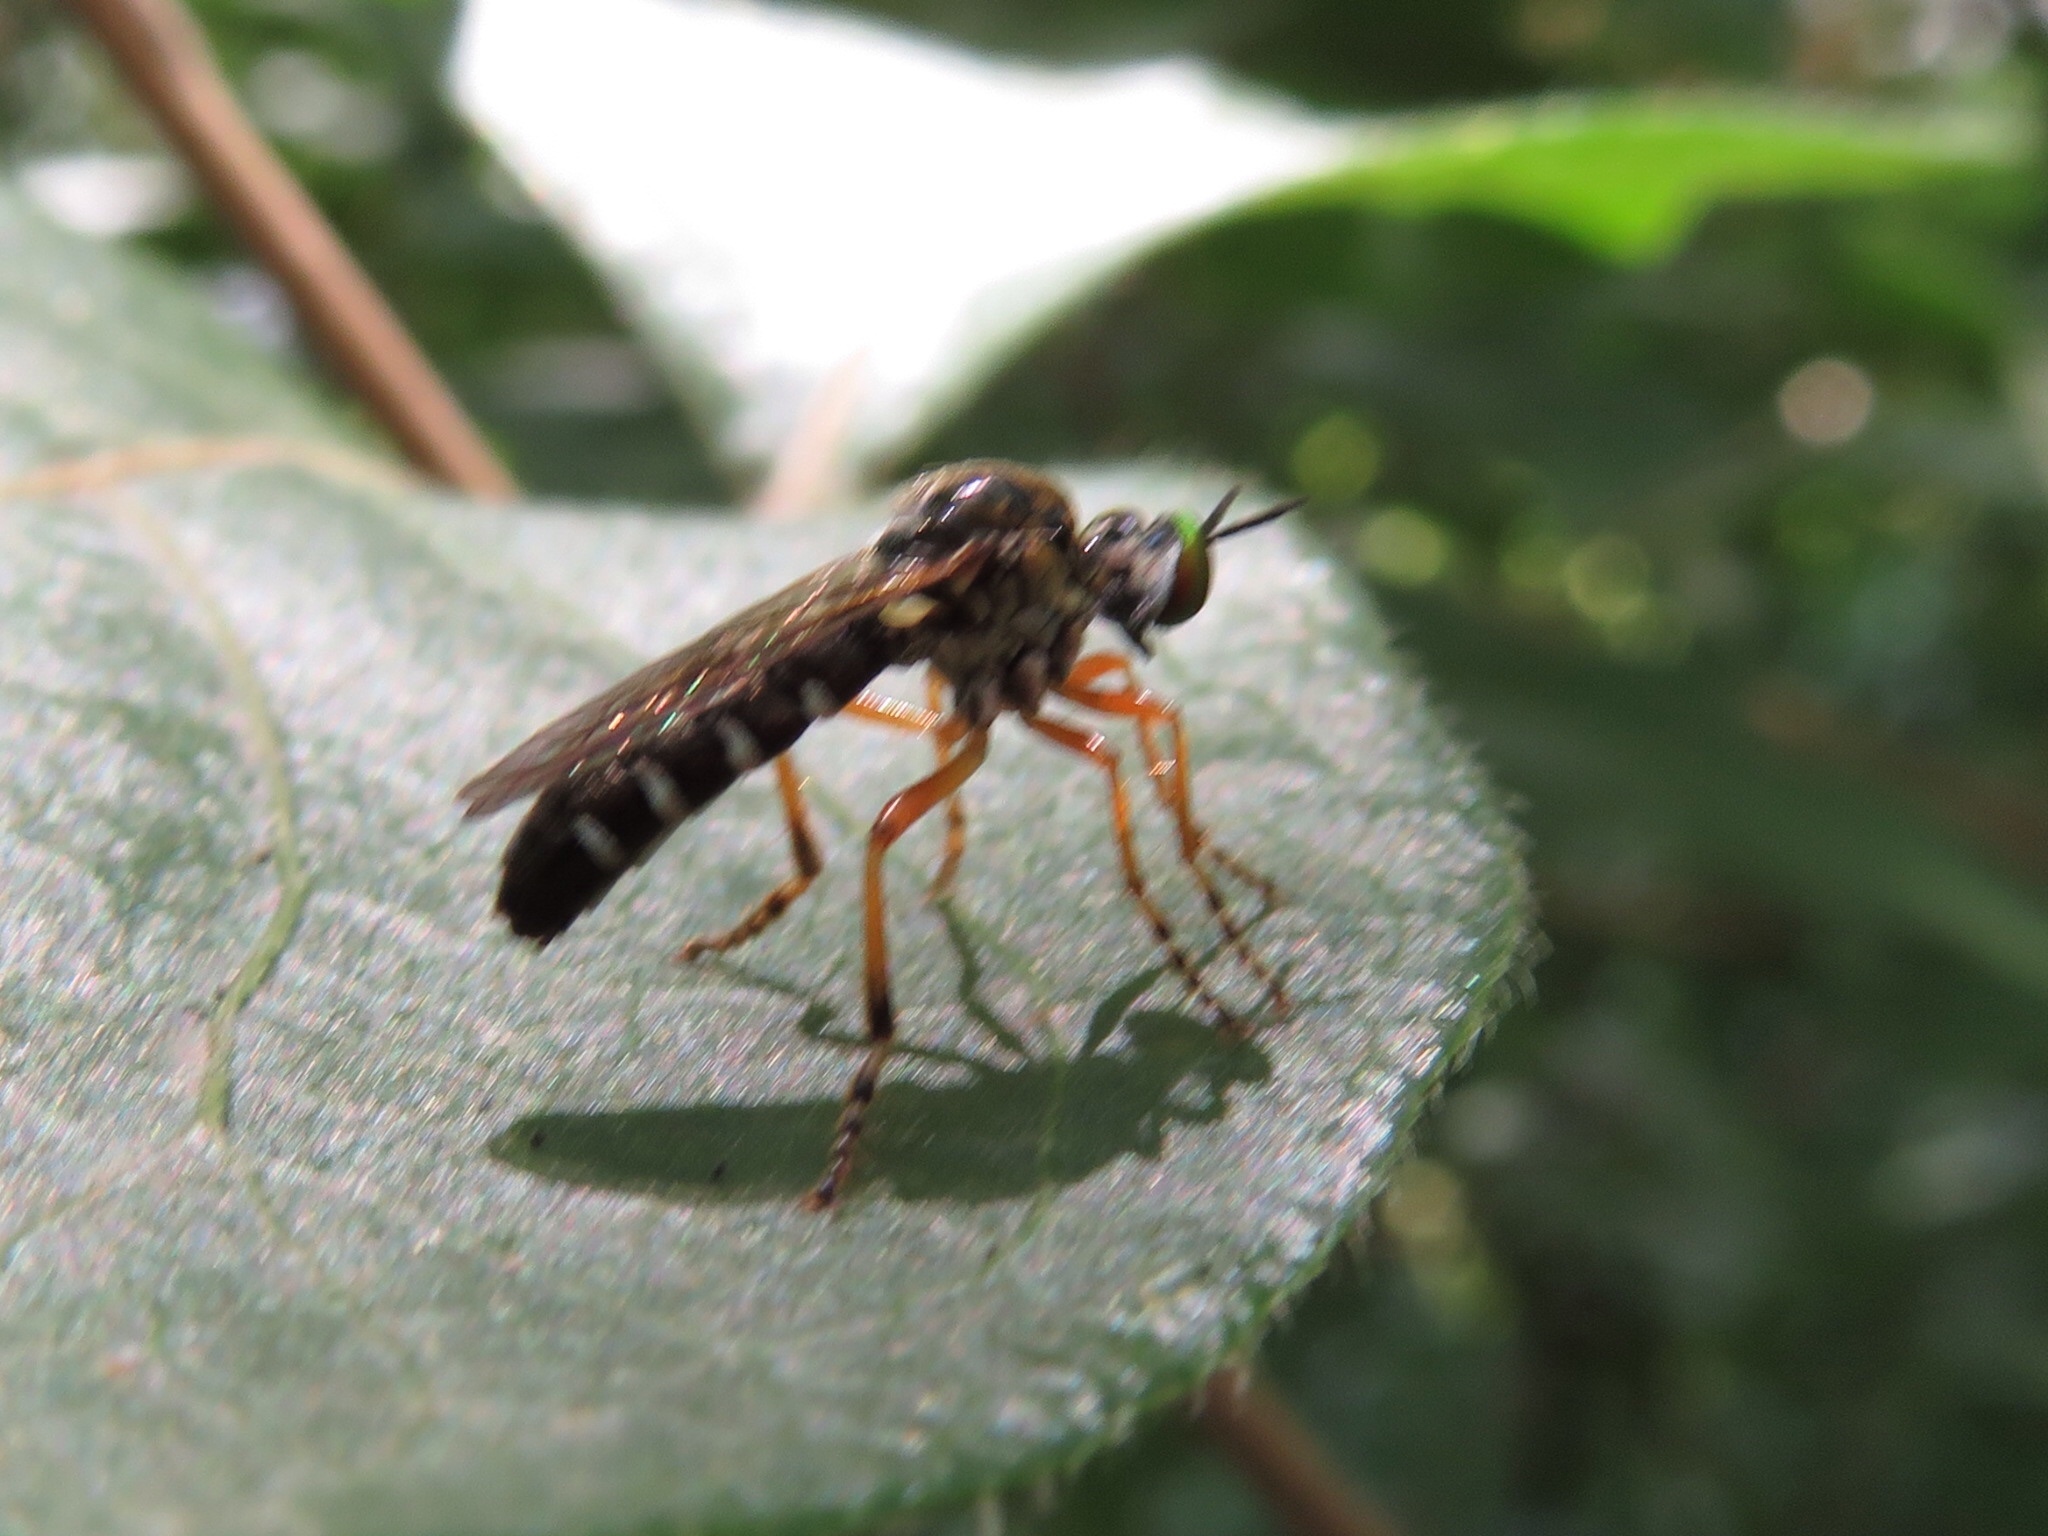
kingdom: Animalia
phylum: Arthropoda
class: Insecta
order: Diptera
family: Asilidae
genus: Taracticus
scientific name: Taracticus octopunctatus
